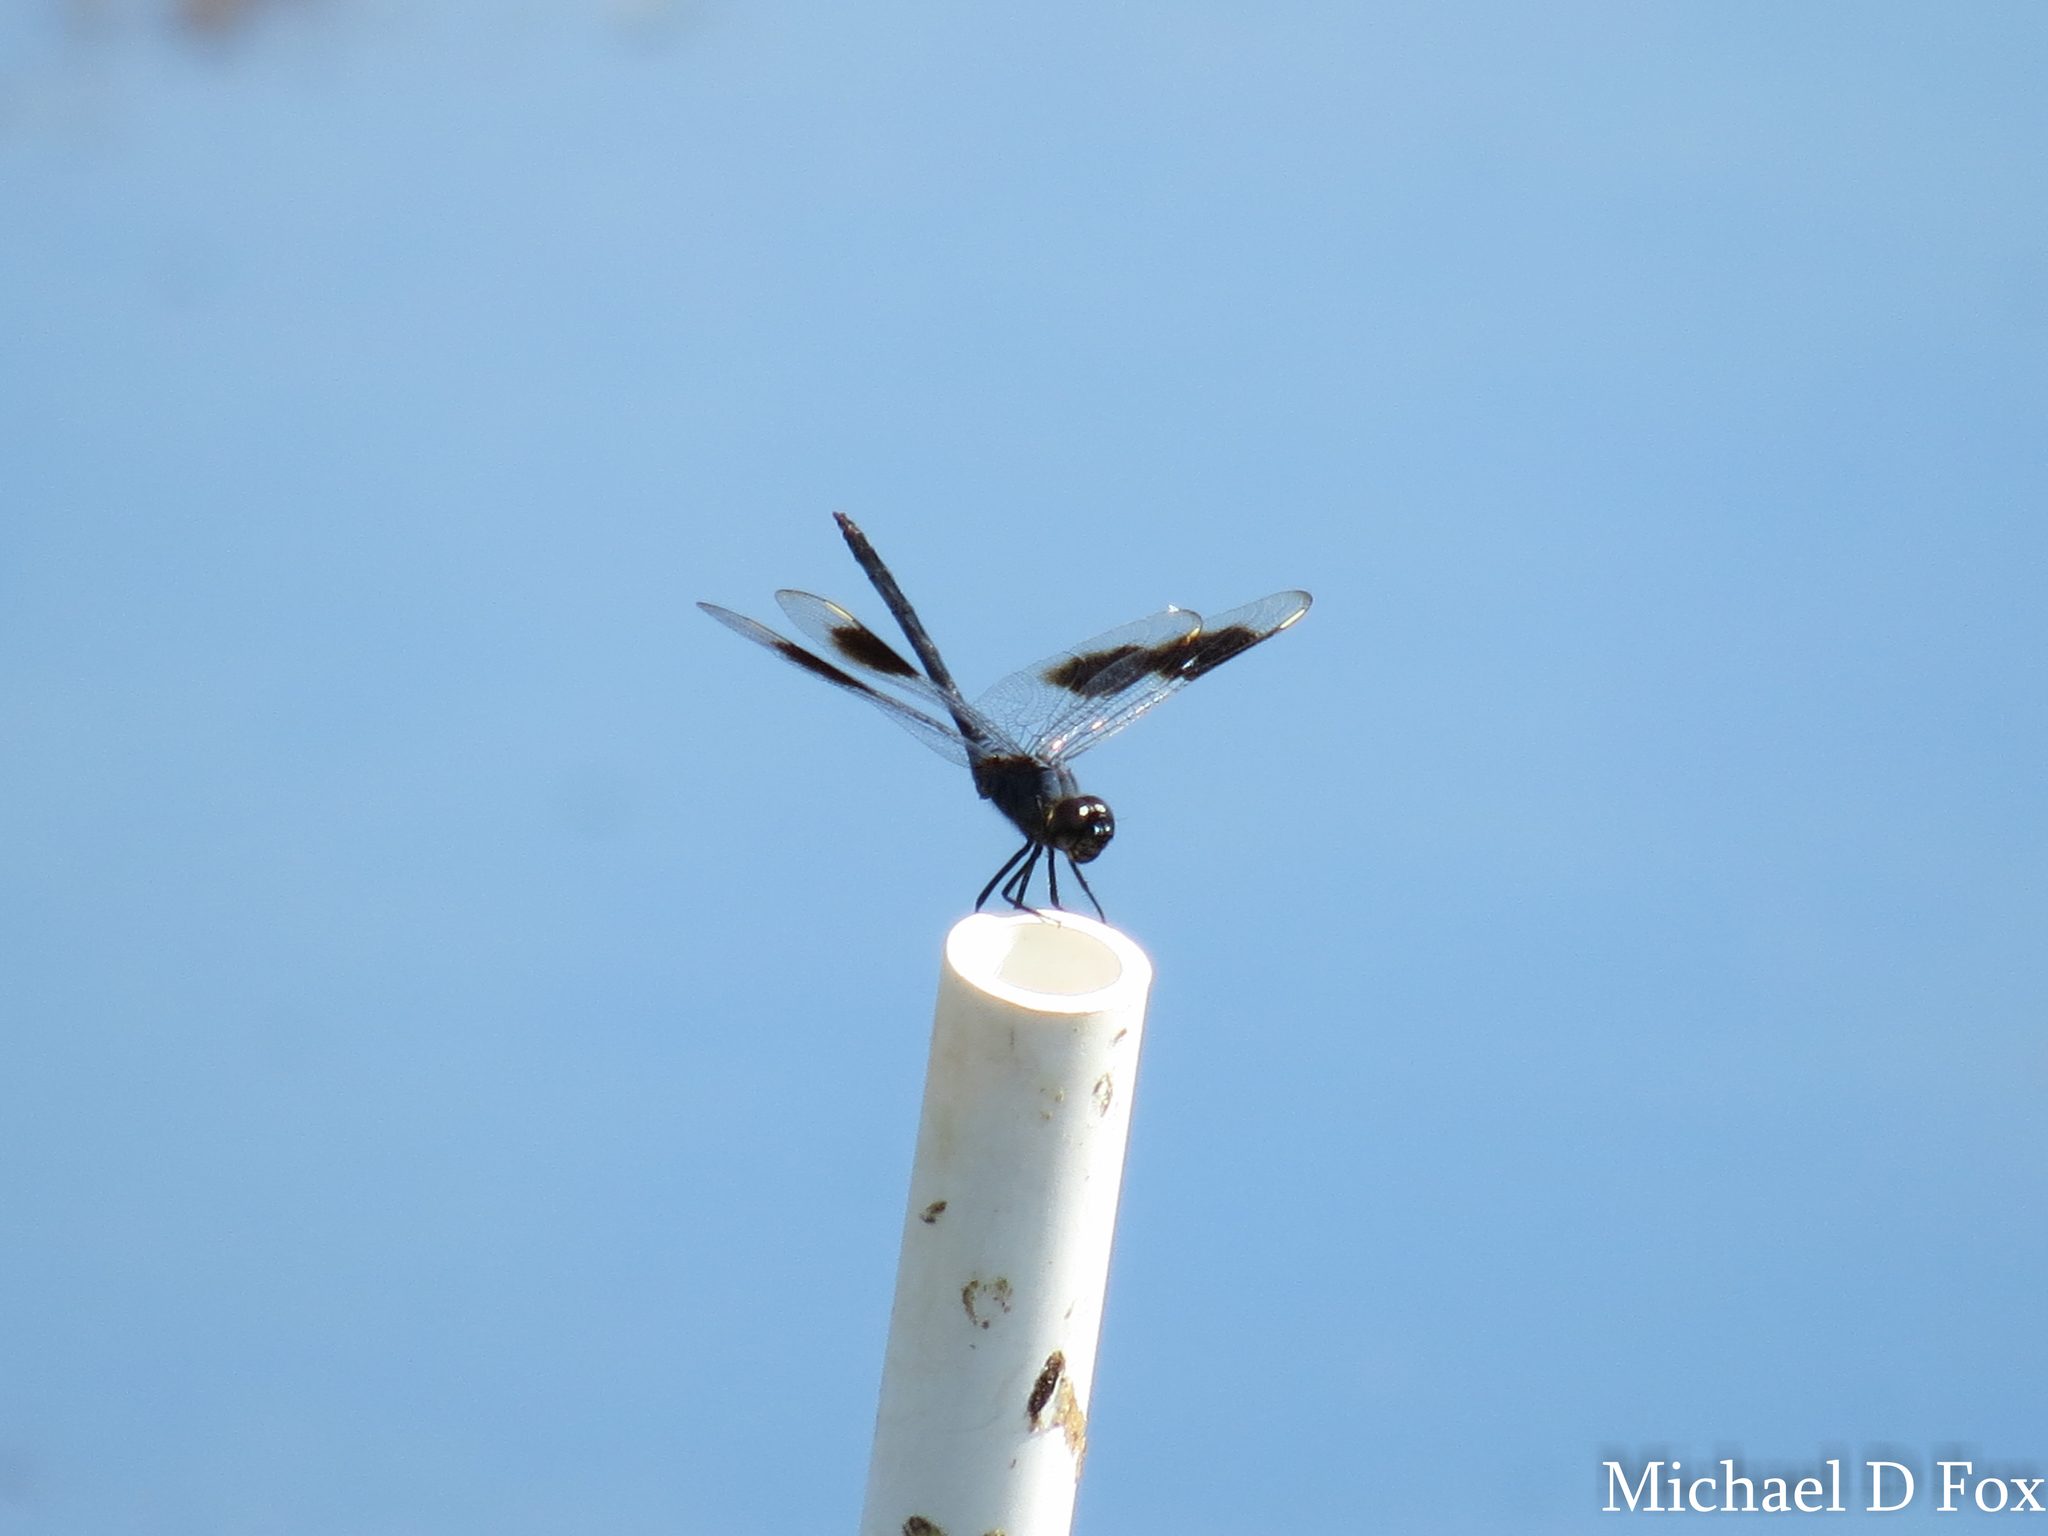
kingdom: Animalia
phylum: Arthropoda
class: Insecta
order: Odonata
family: Libellulidae
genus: Brachymesia
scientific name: Brachymesia gravida
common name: Four-spotted pennant
